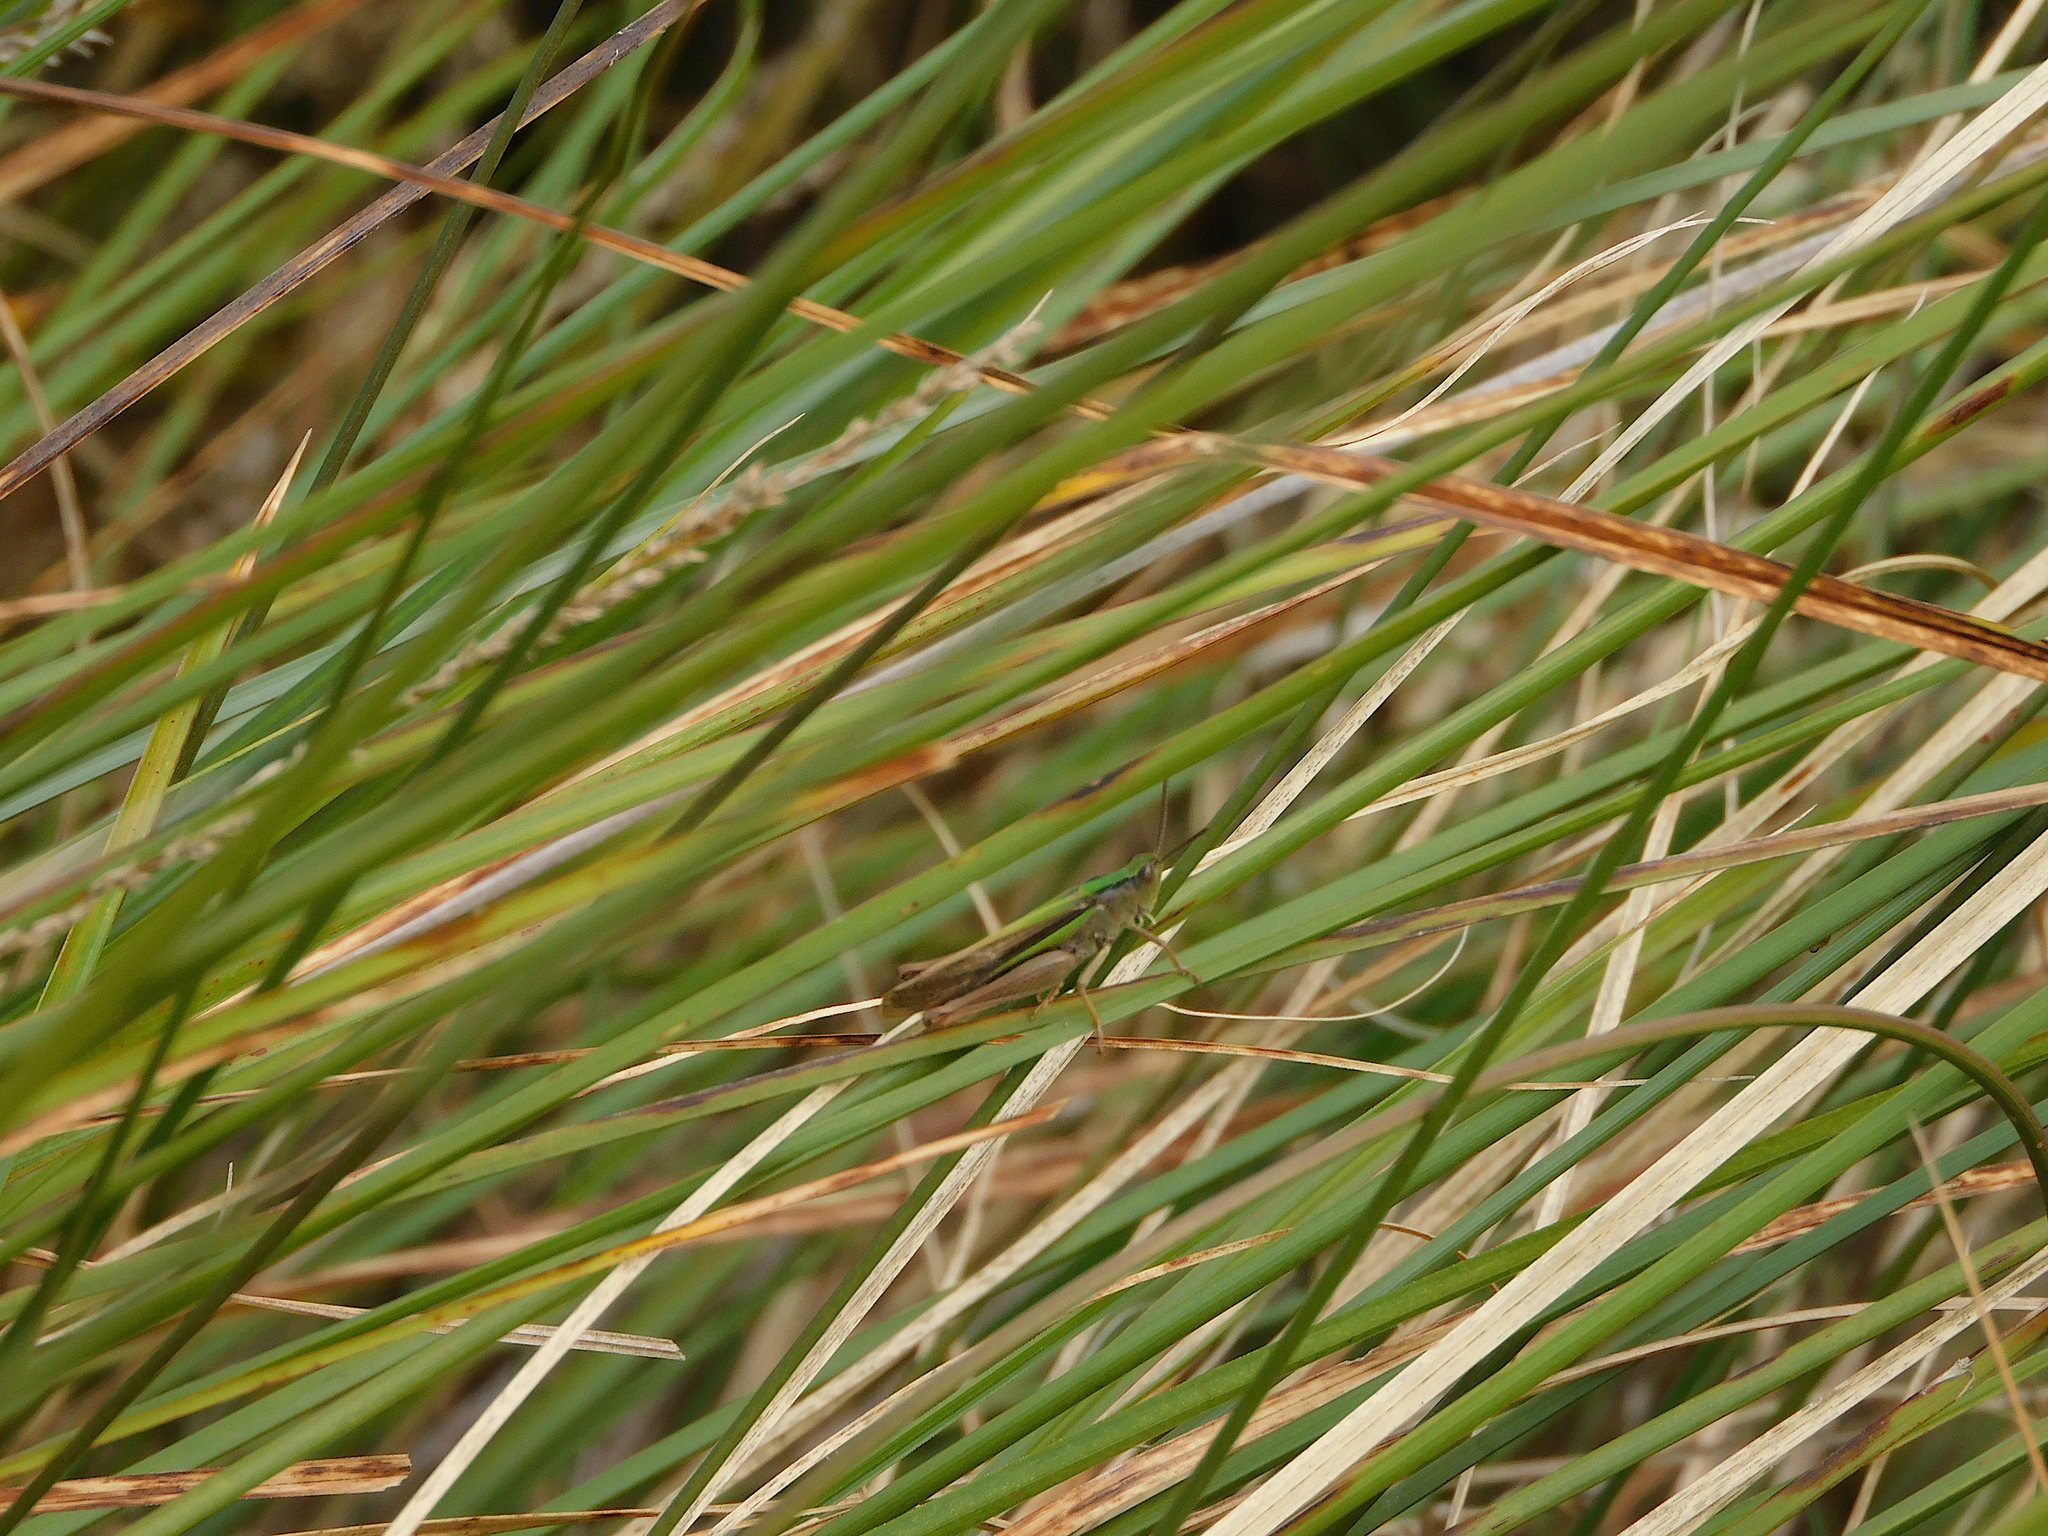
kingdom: Animalia
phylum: Arthropoda
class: Insecta
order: Orthoptera
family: Acrididae
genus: Schizobothrus
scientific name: Schizobothrus flavovittatus
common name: Disappearing grasshopper
